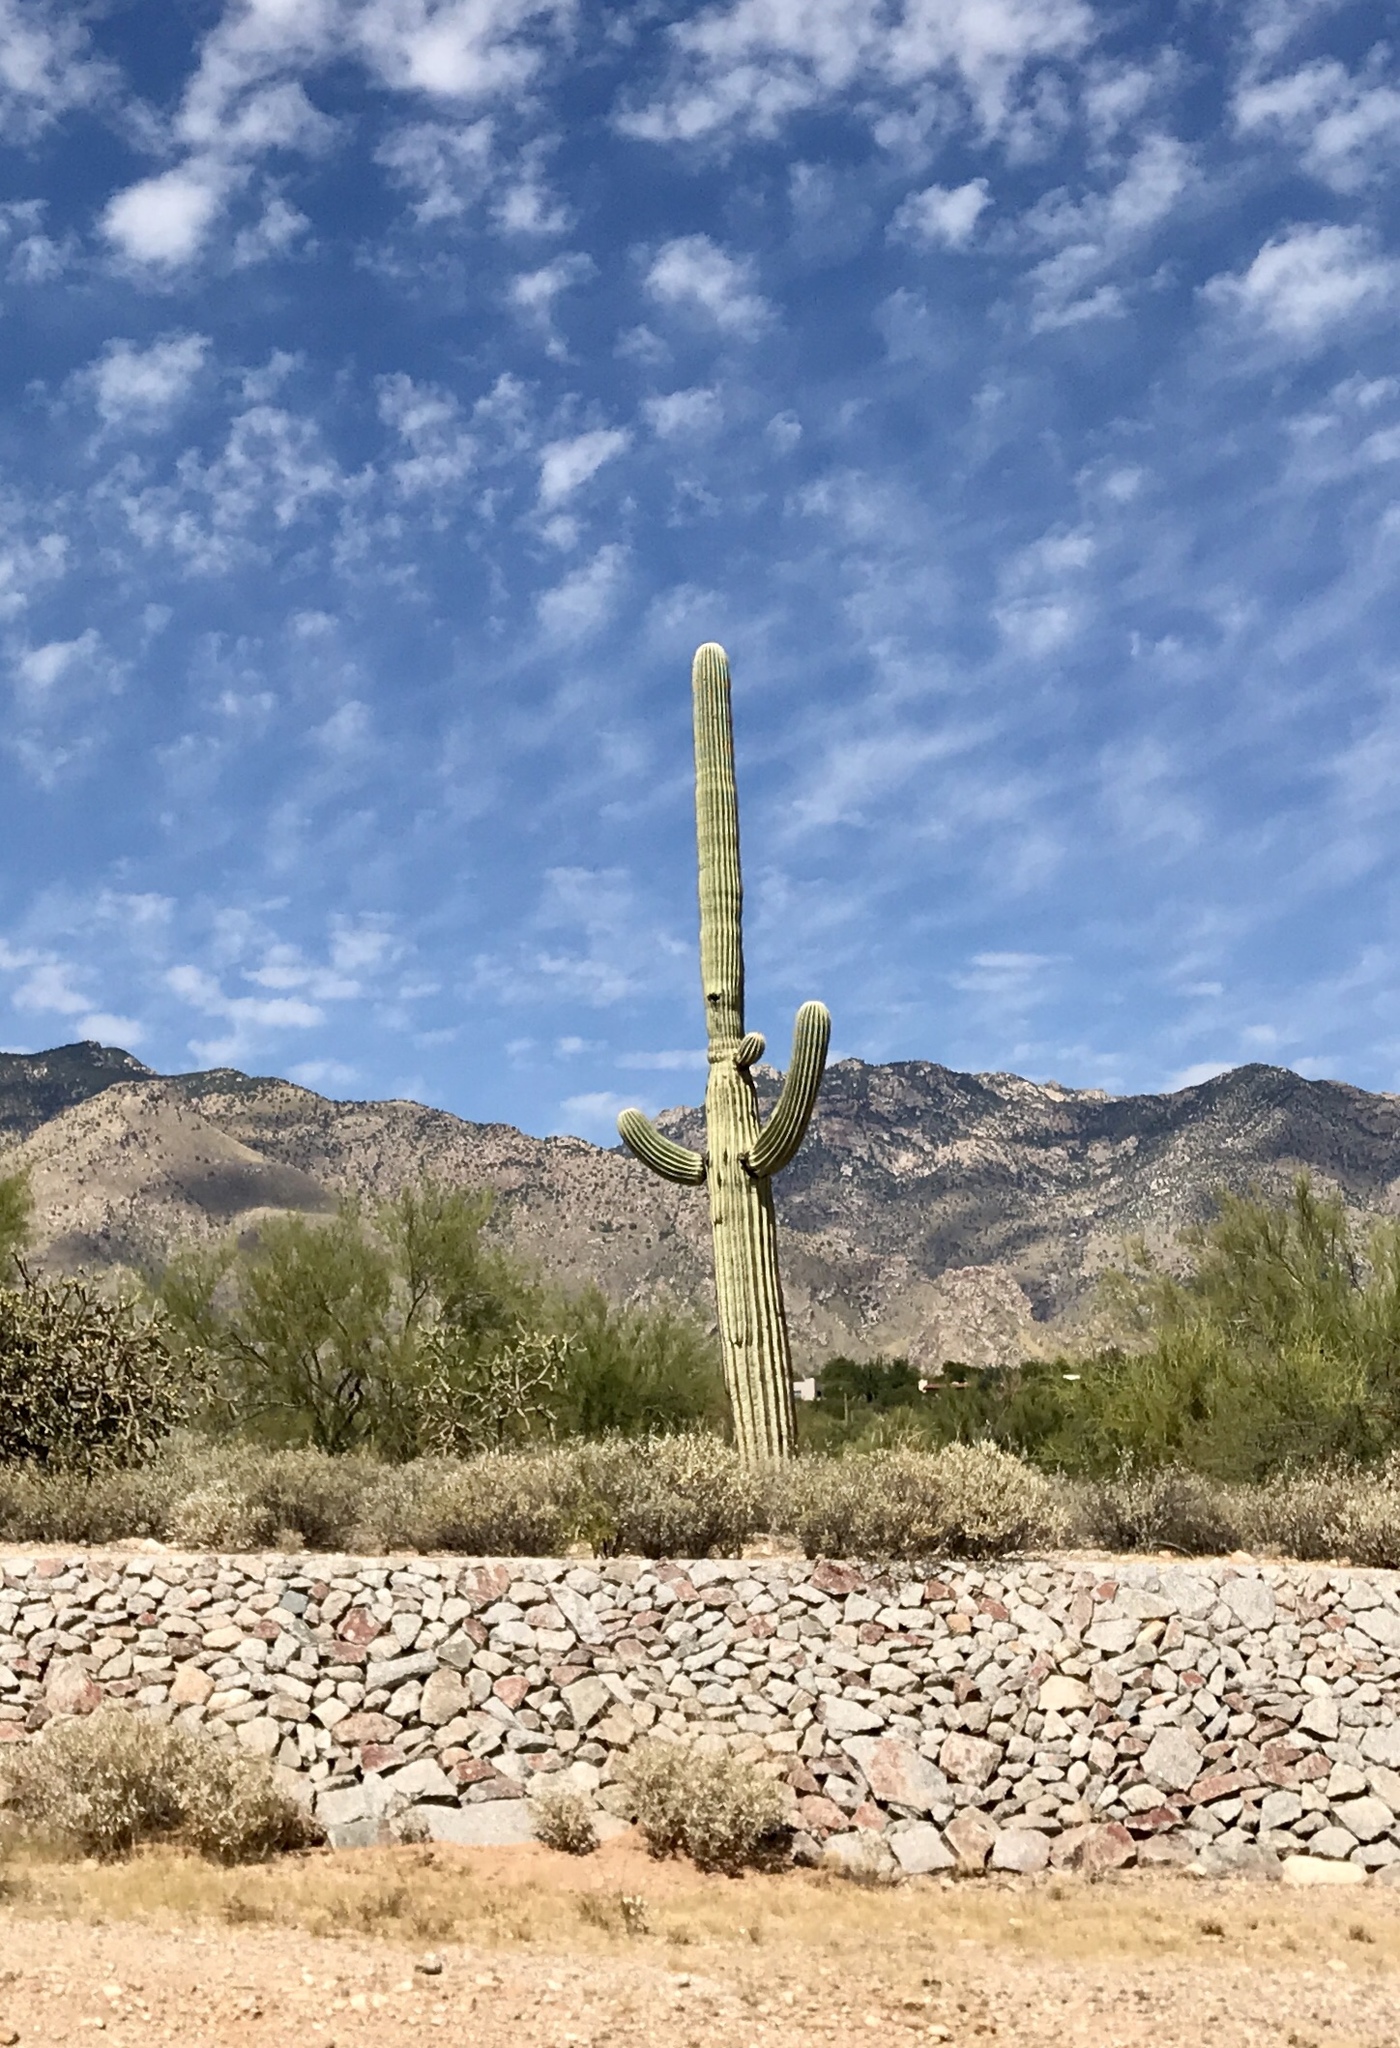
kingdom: Plantae
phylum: Tracheophyta
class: Magnoliopsida
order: Caryophyllales
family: Cactaceae
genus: Carnegiea
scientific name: Carnegiea gigantea
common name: Saguaro
